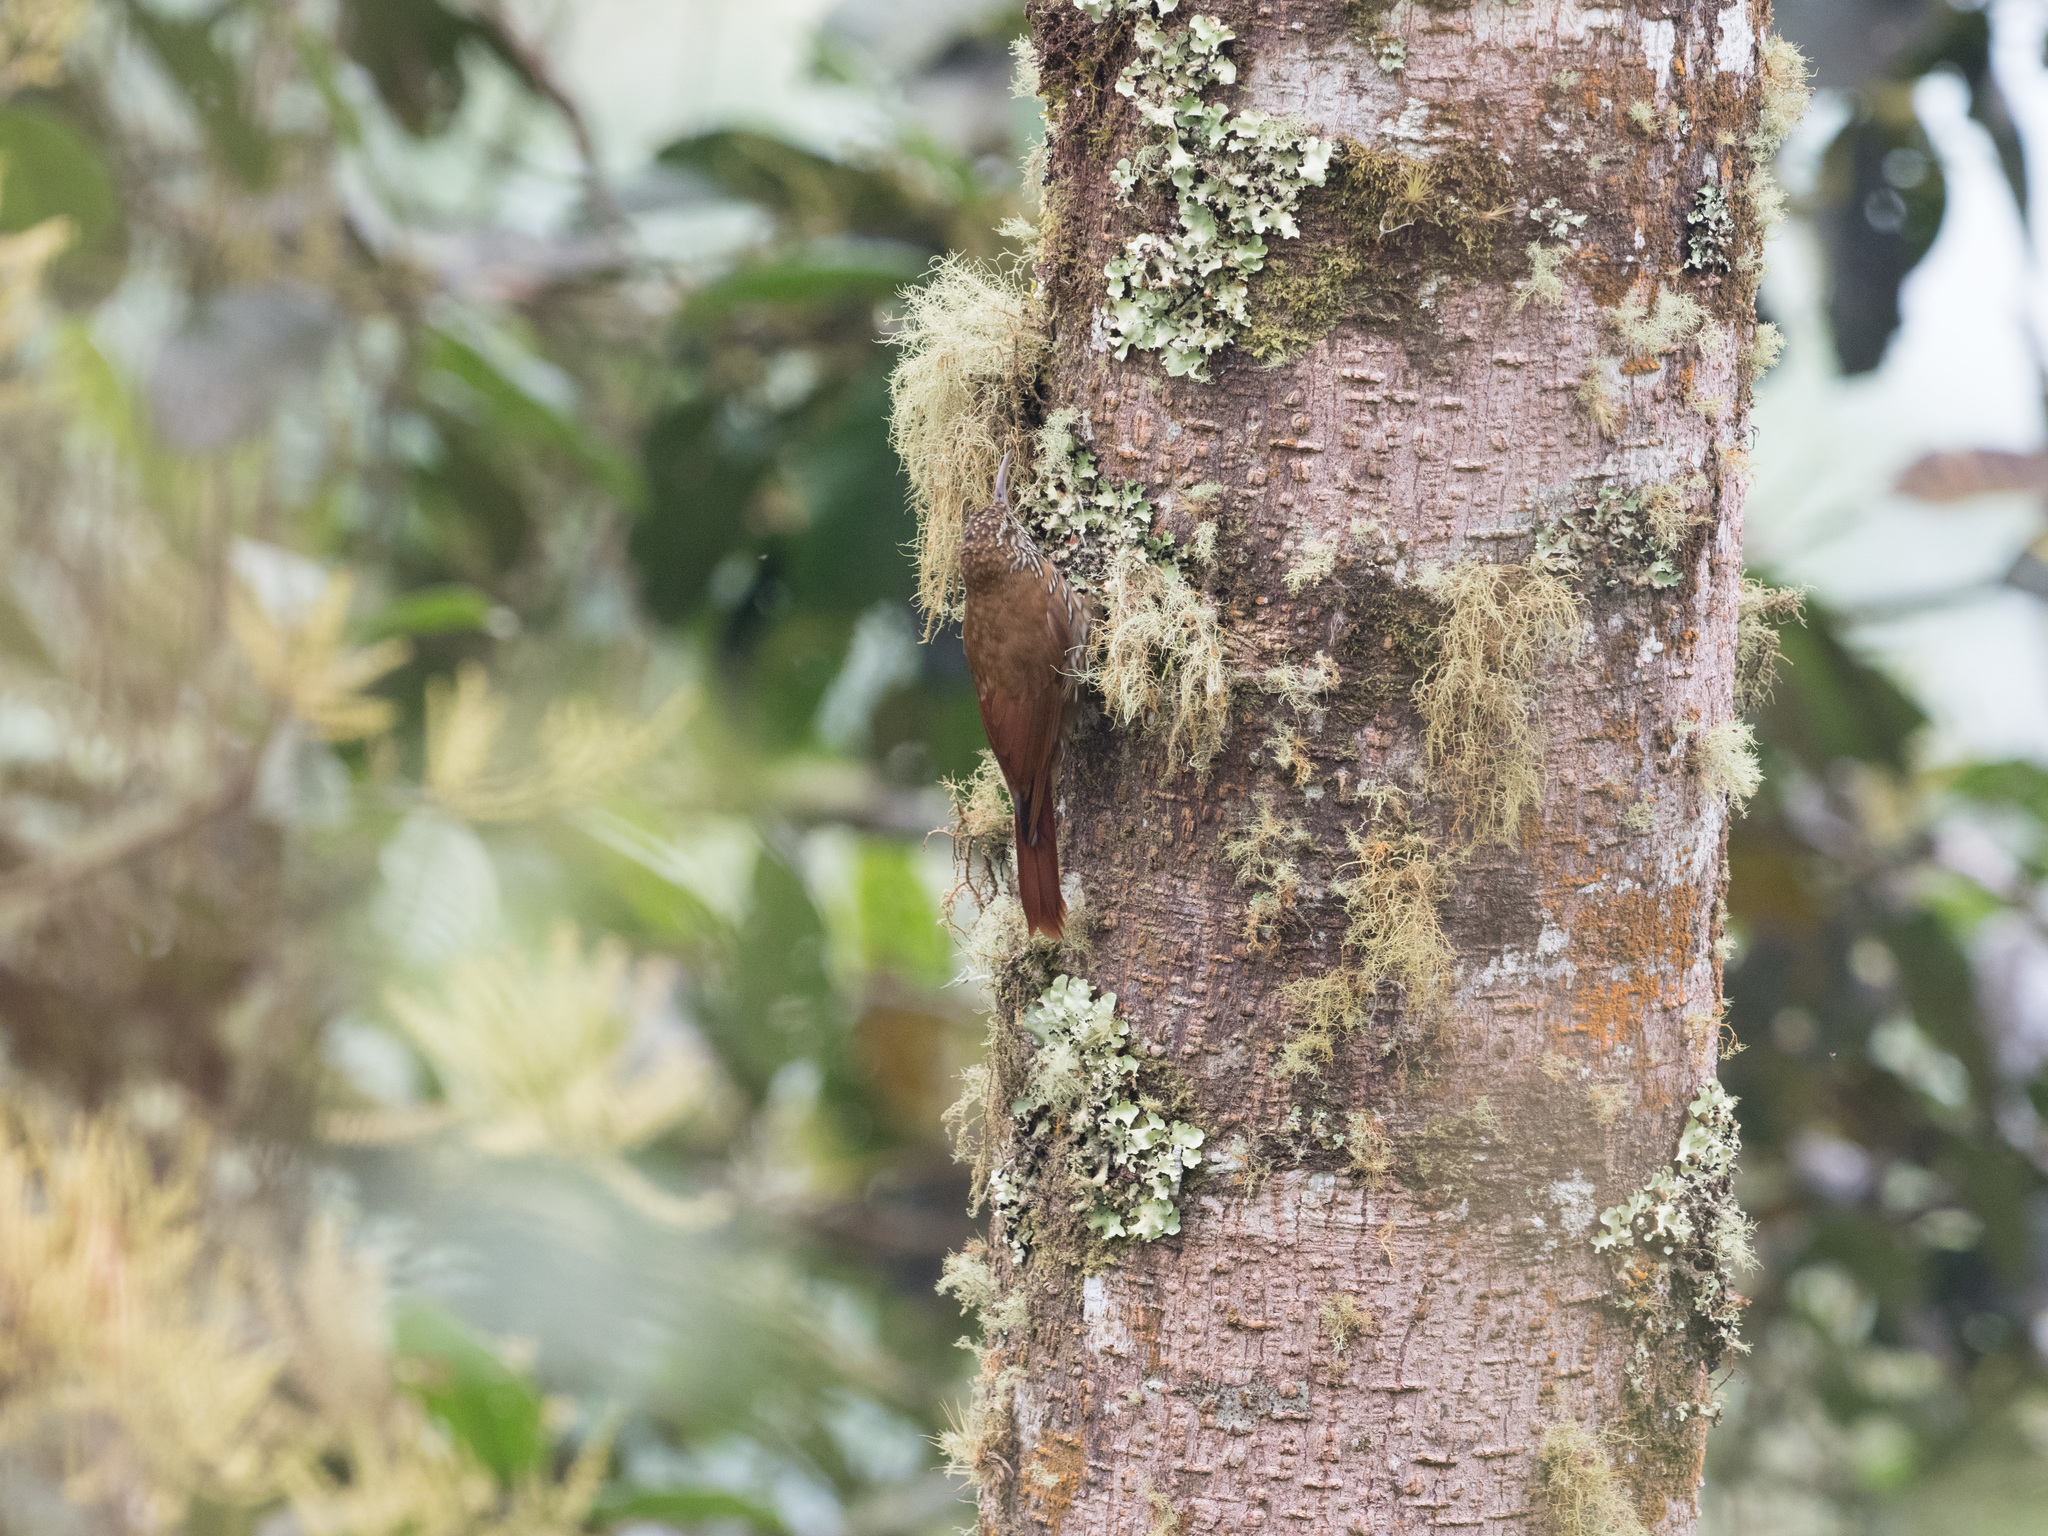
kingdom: Animalia
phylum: Chordata
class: Aves
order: Passeriformes
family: Furnariidae
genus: Lepidocolaptes
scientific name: Lepidocolaptes lacrymiger
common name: Montane woodcreeper
